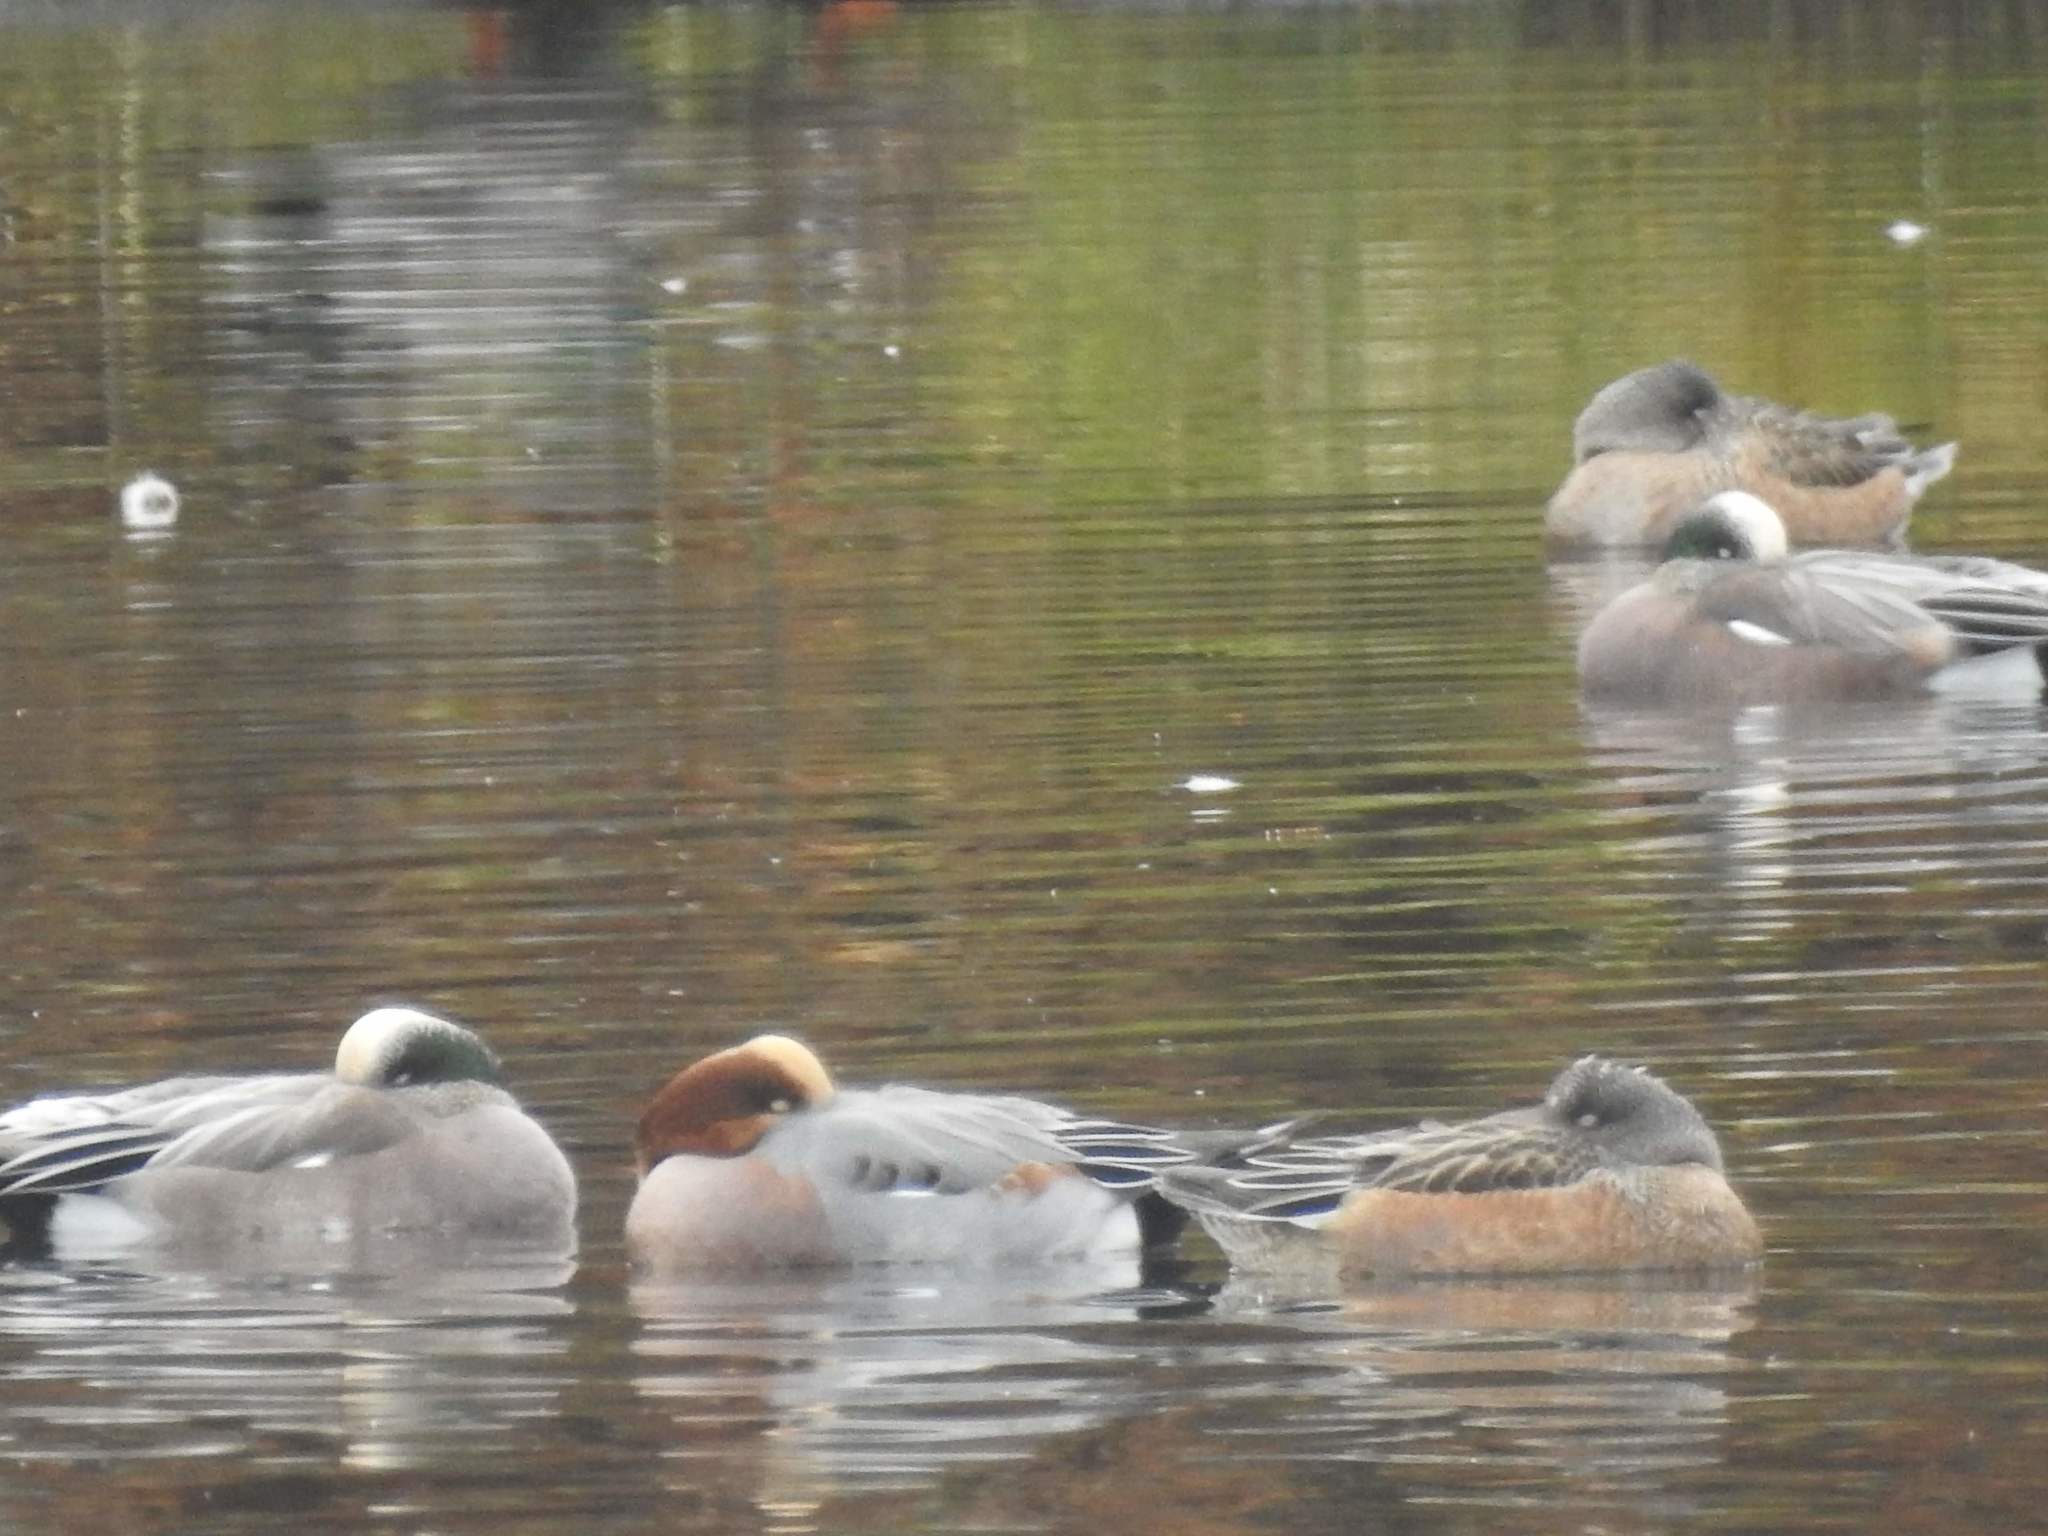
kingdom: Animalia
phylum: Chordata
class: Aves
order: Anseriformes
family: Anatidae
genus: Mareca
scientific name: Mareca penelope
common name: Eurasian wigeon
